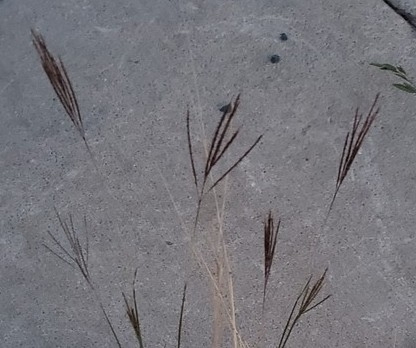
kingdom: Plantae
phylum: Tracheophyta
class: Liliopsida
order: Poales
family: Poaceae
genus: Bothriochloa
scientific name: Bothriochloa ischaemum
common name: Yellow bluestem
